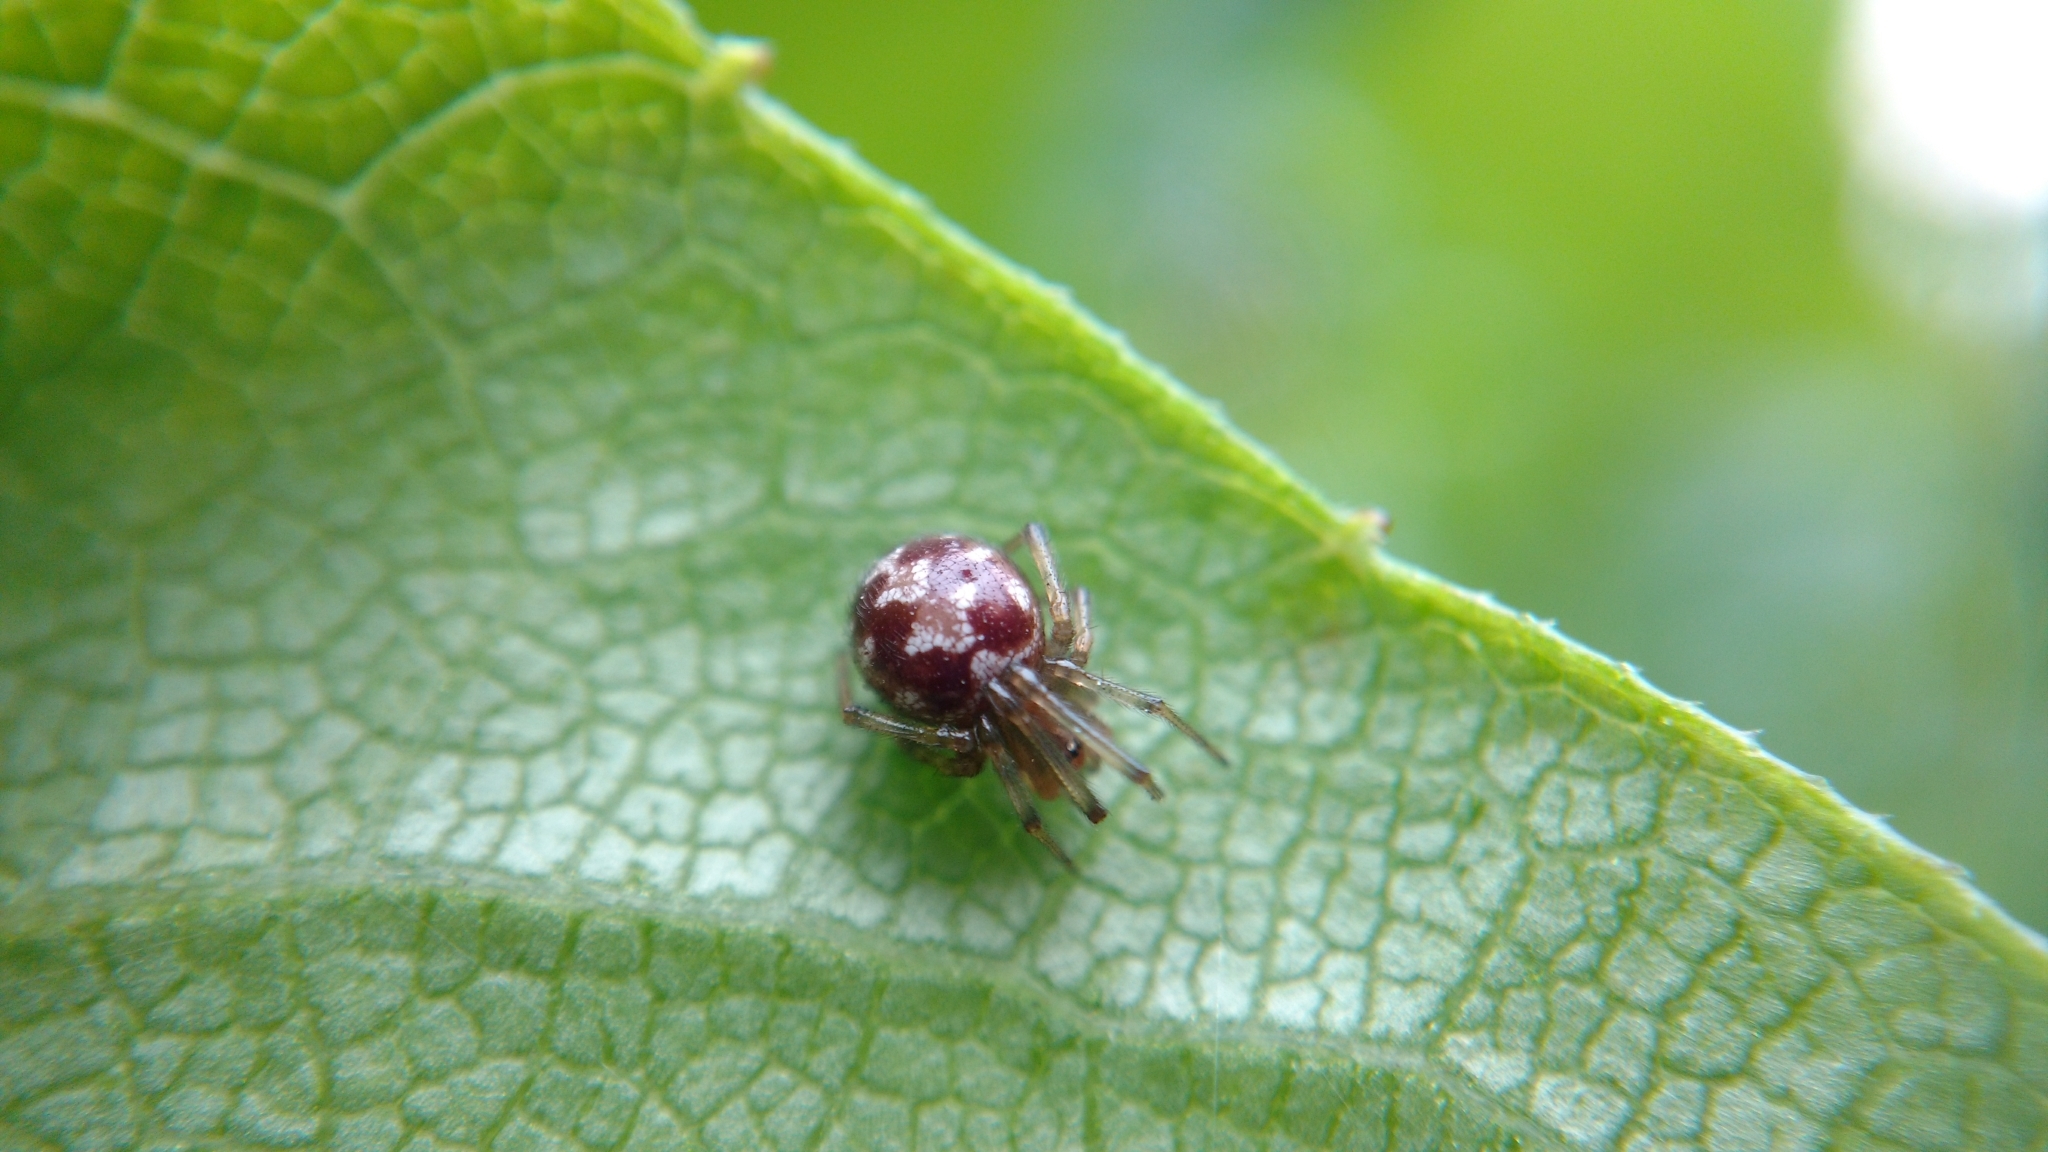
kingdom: Animalia
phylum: Arthropoda
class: Arachnida
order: Araneae
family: Theridiidae
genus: Steatoda
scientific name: Steatoda triangulosa
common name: Triangulate bud spider
